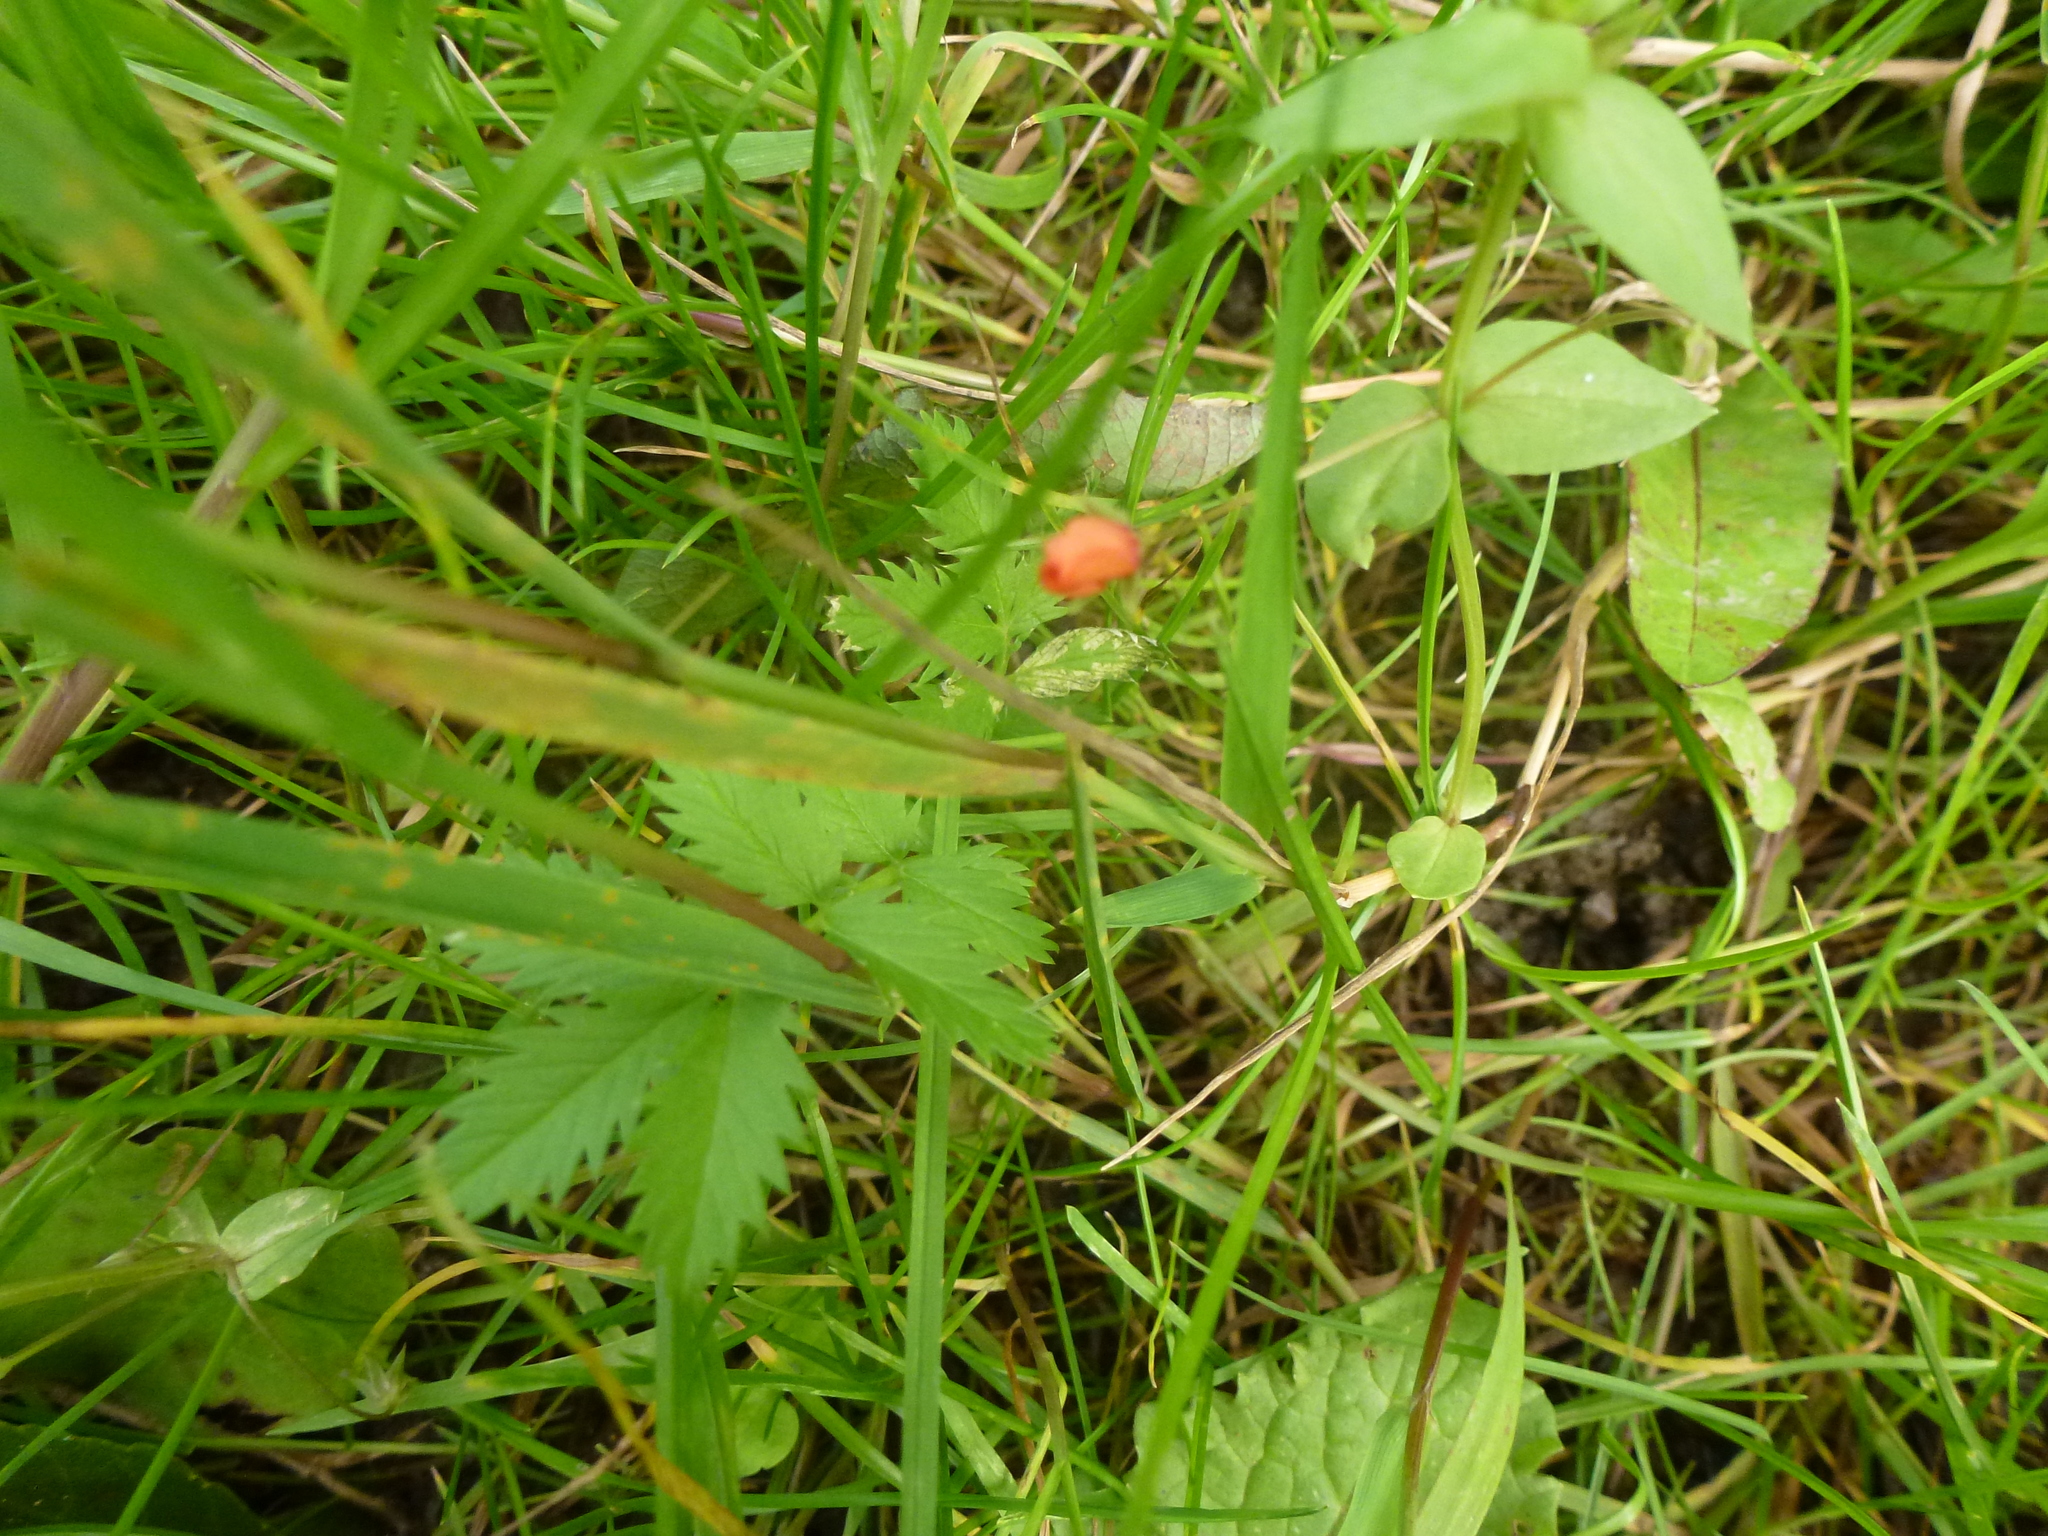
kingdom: Plantae
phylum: Tracheophyta
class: Magnoliopsida
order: Ericales
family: Primulaceae
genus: Lysimachia
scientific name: Lysimachia arvensis
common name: Scarlet pimpernel
